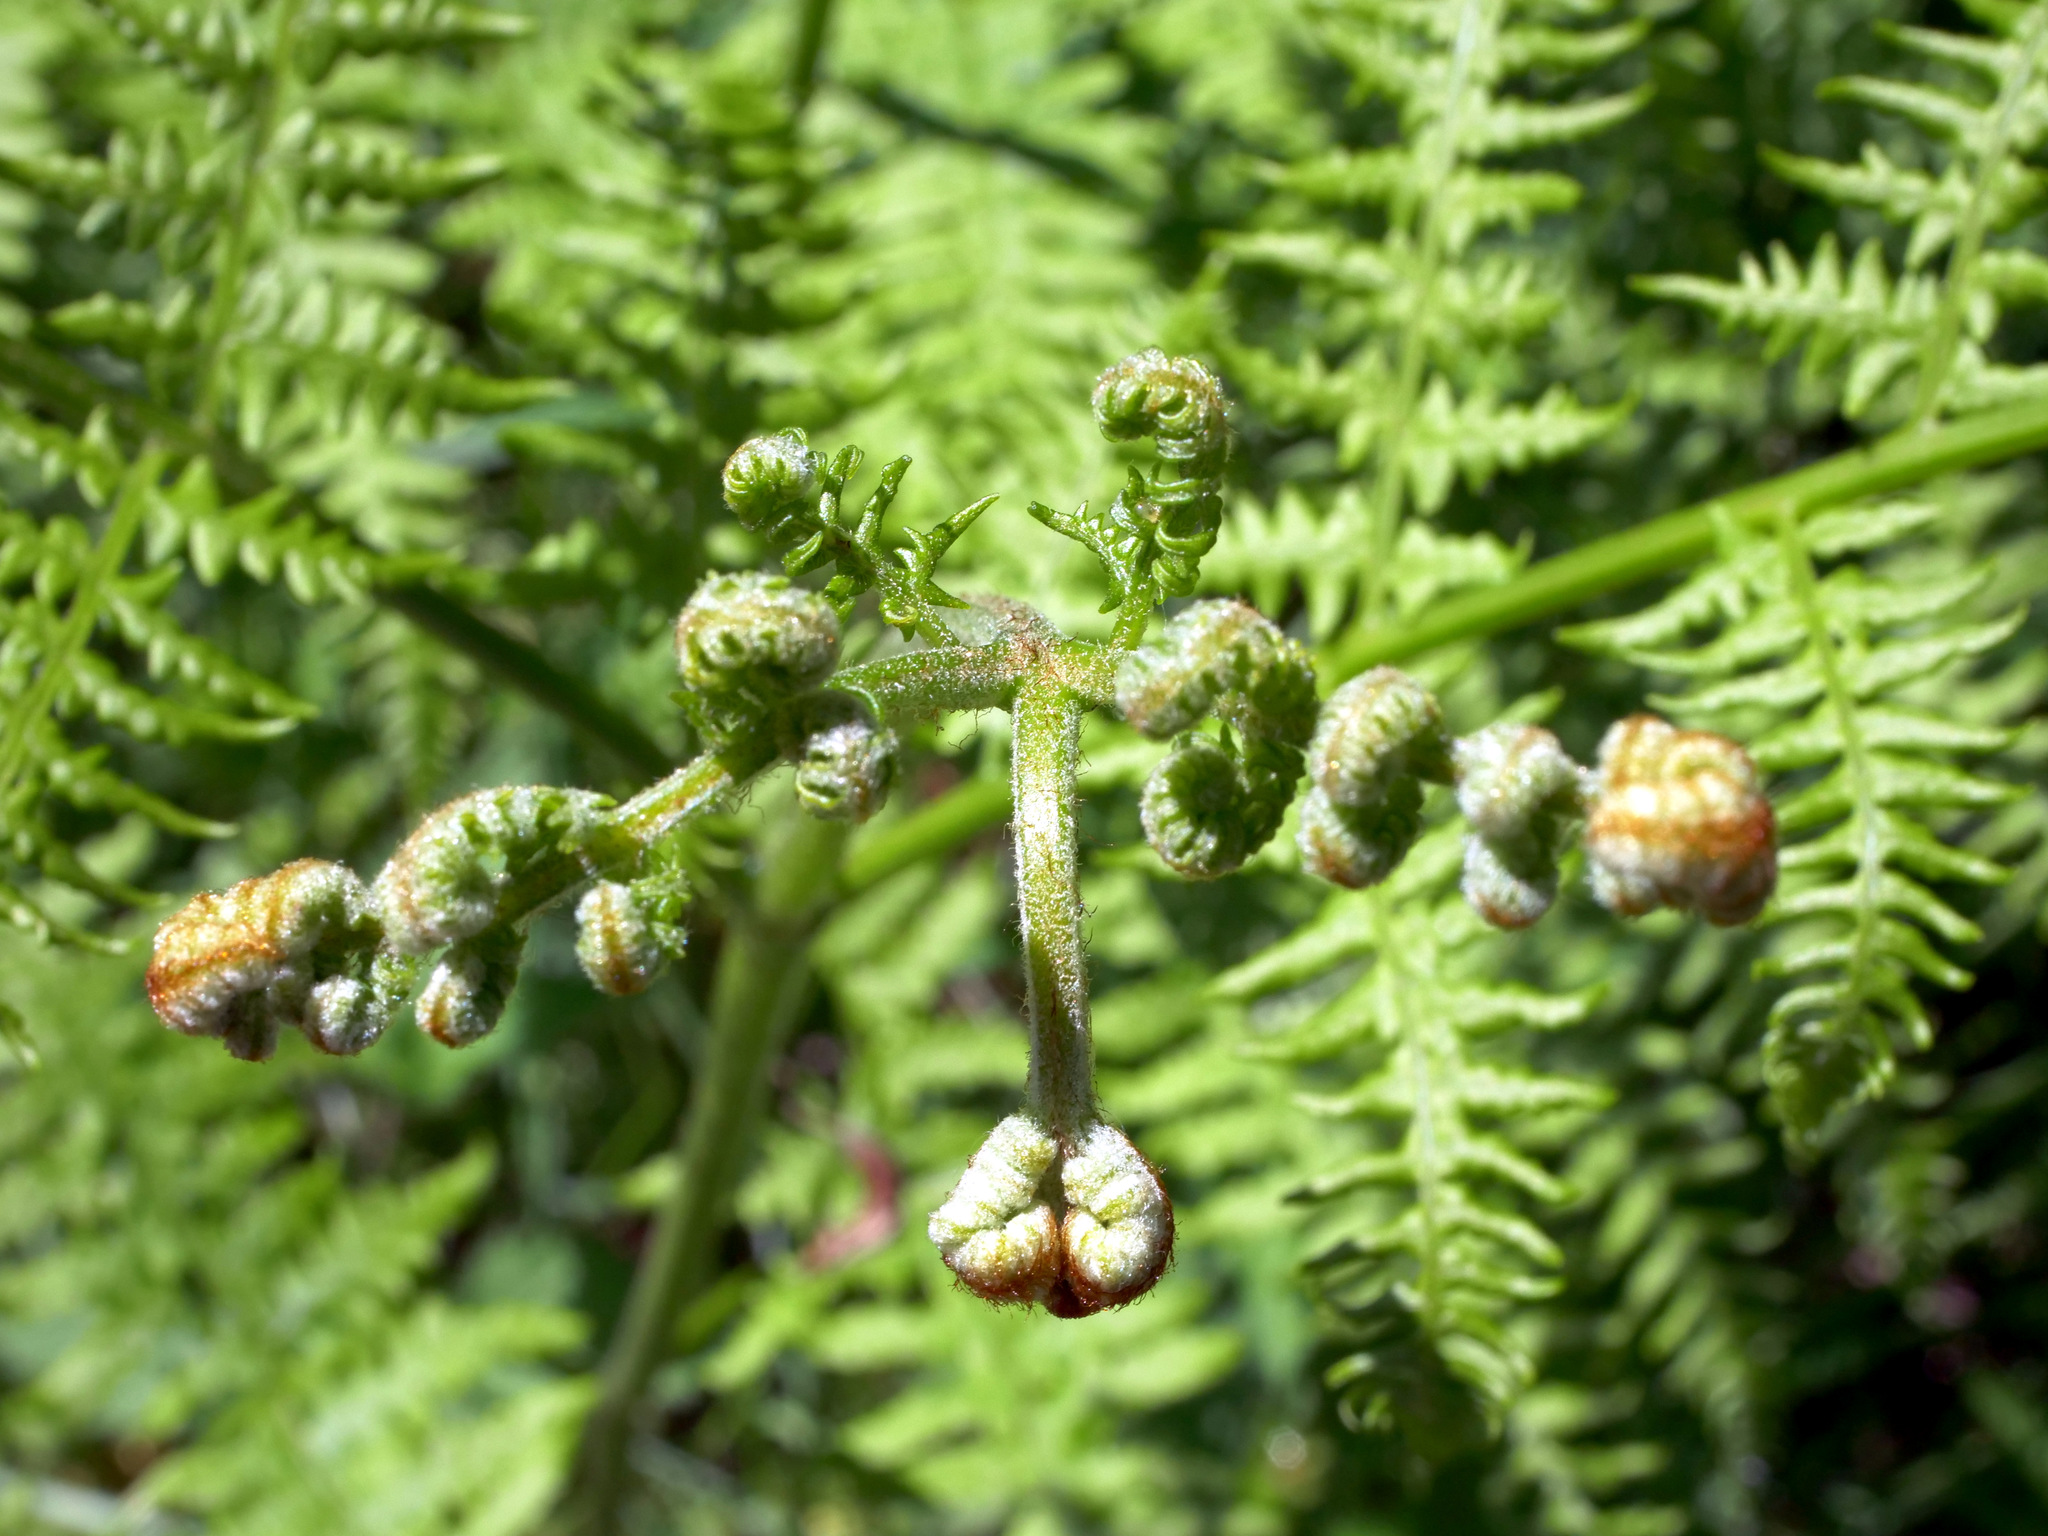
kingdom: Plantae
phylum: Tracheophyta
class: Polypodiopsida
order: Polypodiales
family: Dennstaedtiaceae
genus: Pteridium
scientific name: Pteridium aquilinum
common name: Bracken
